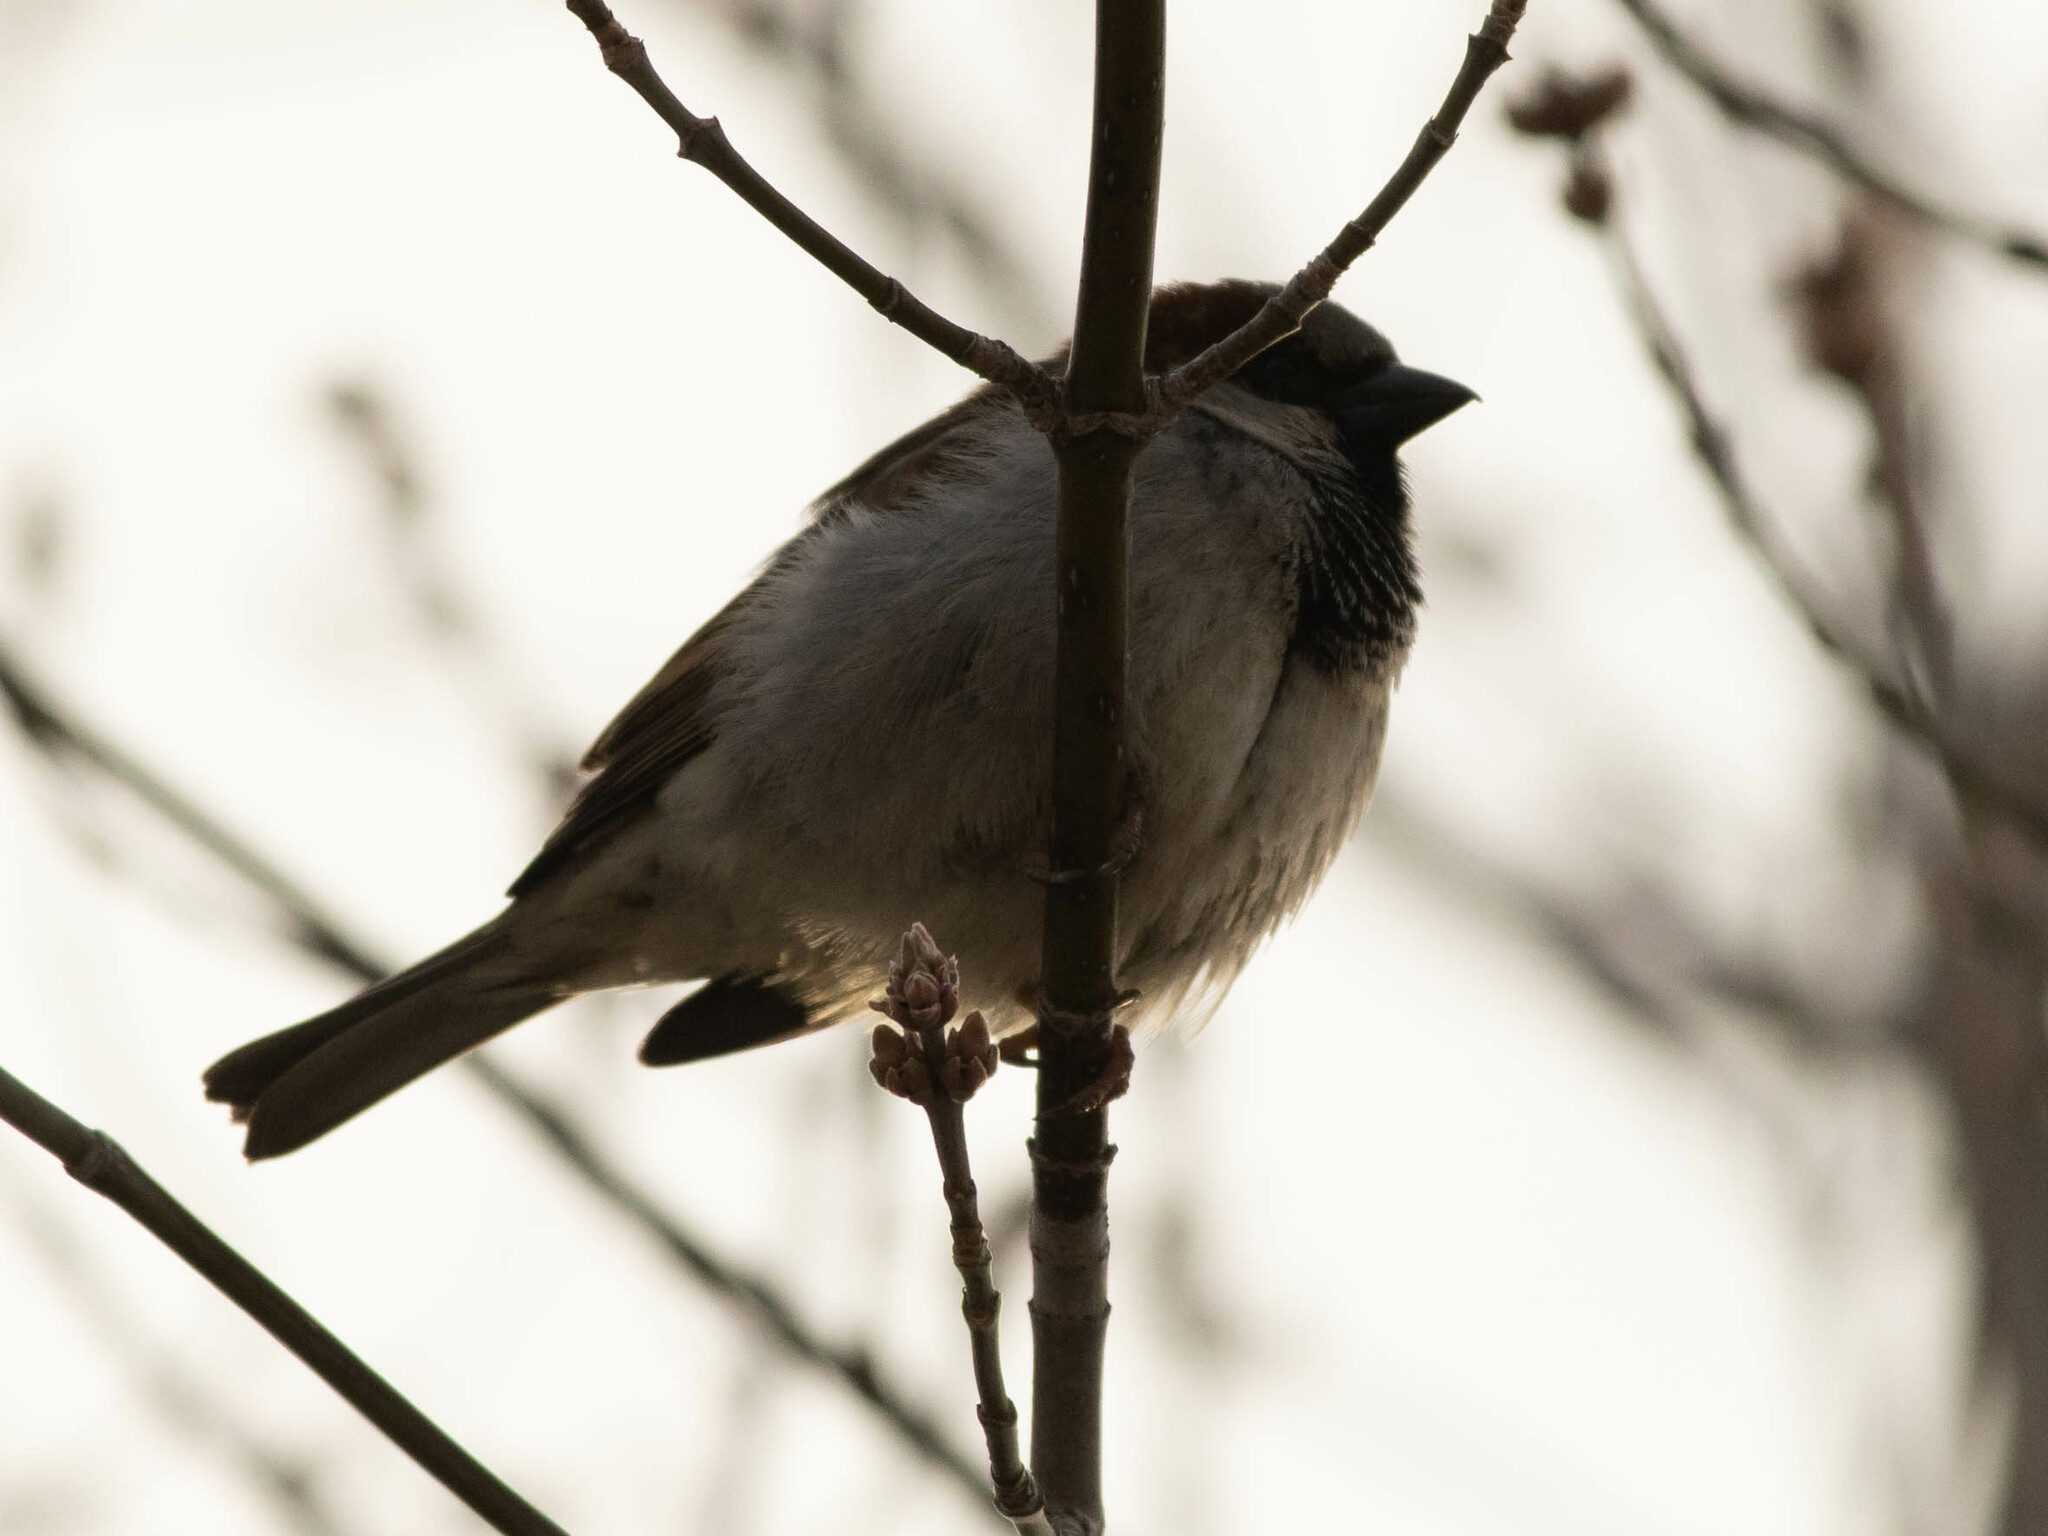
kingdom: Animalia
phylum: Chordata
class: Aves
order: Passeriformes
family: Passeridae
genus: Passer
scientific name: Passer domesticus
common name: House sparrow
